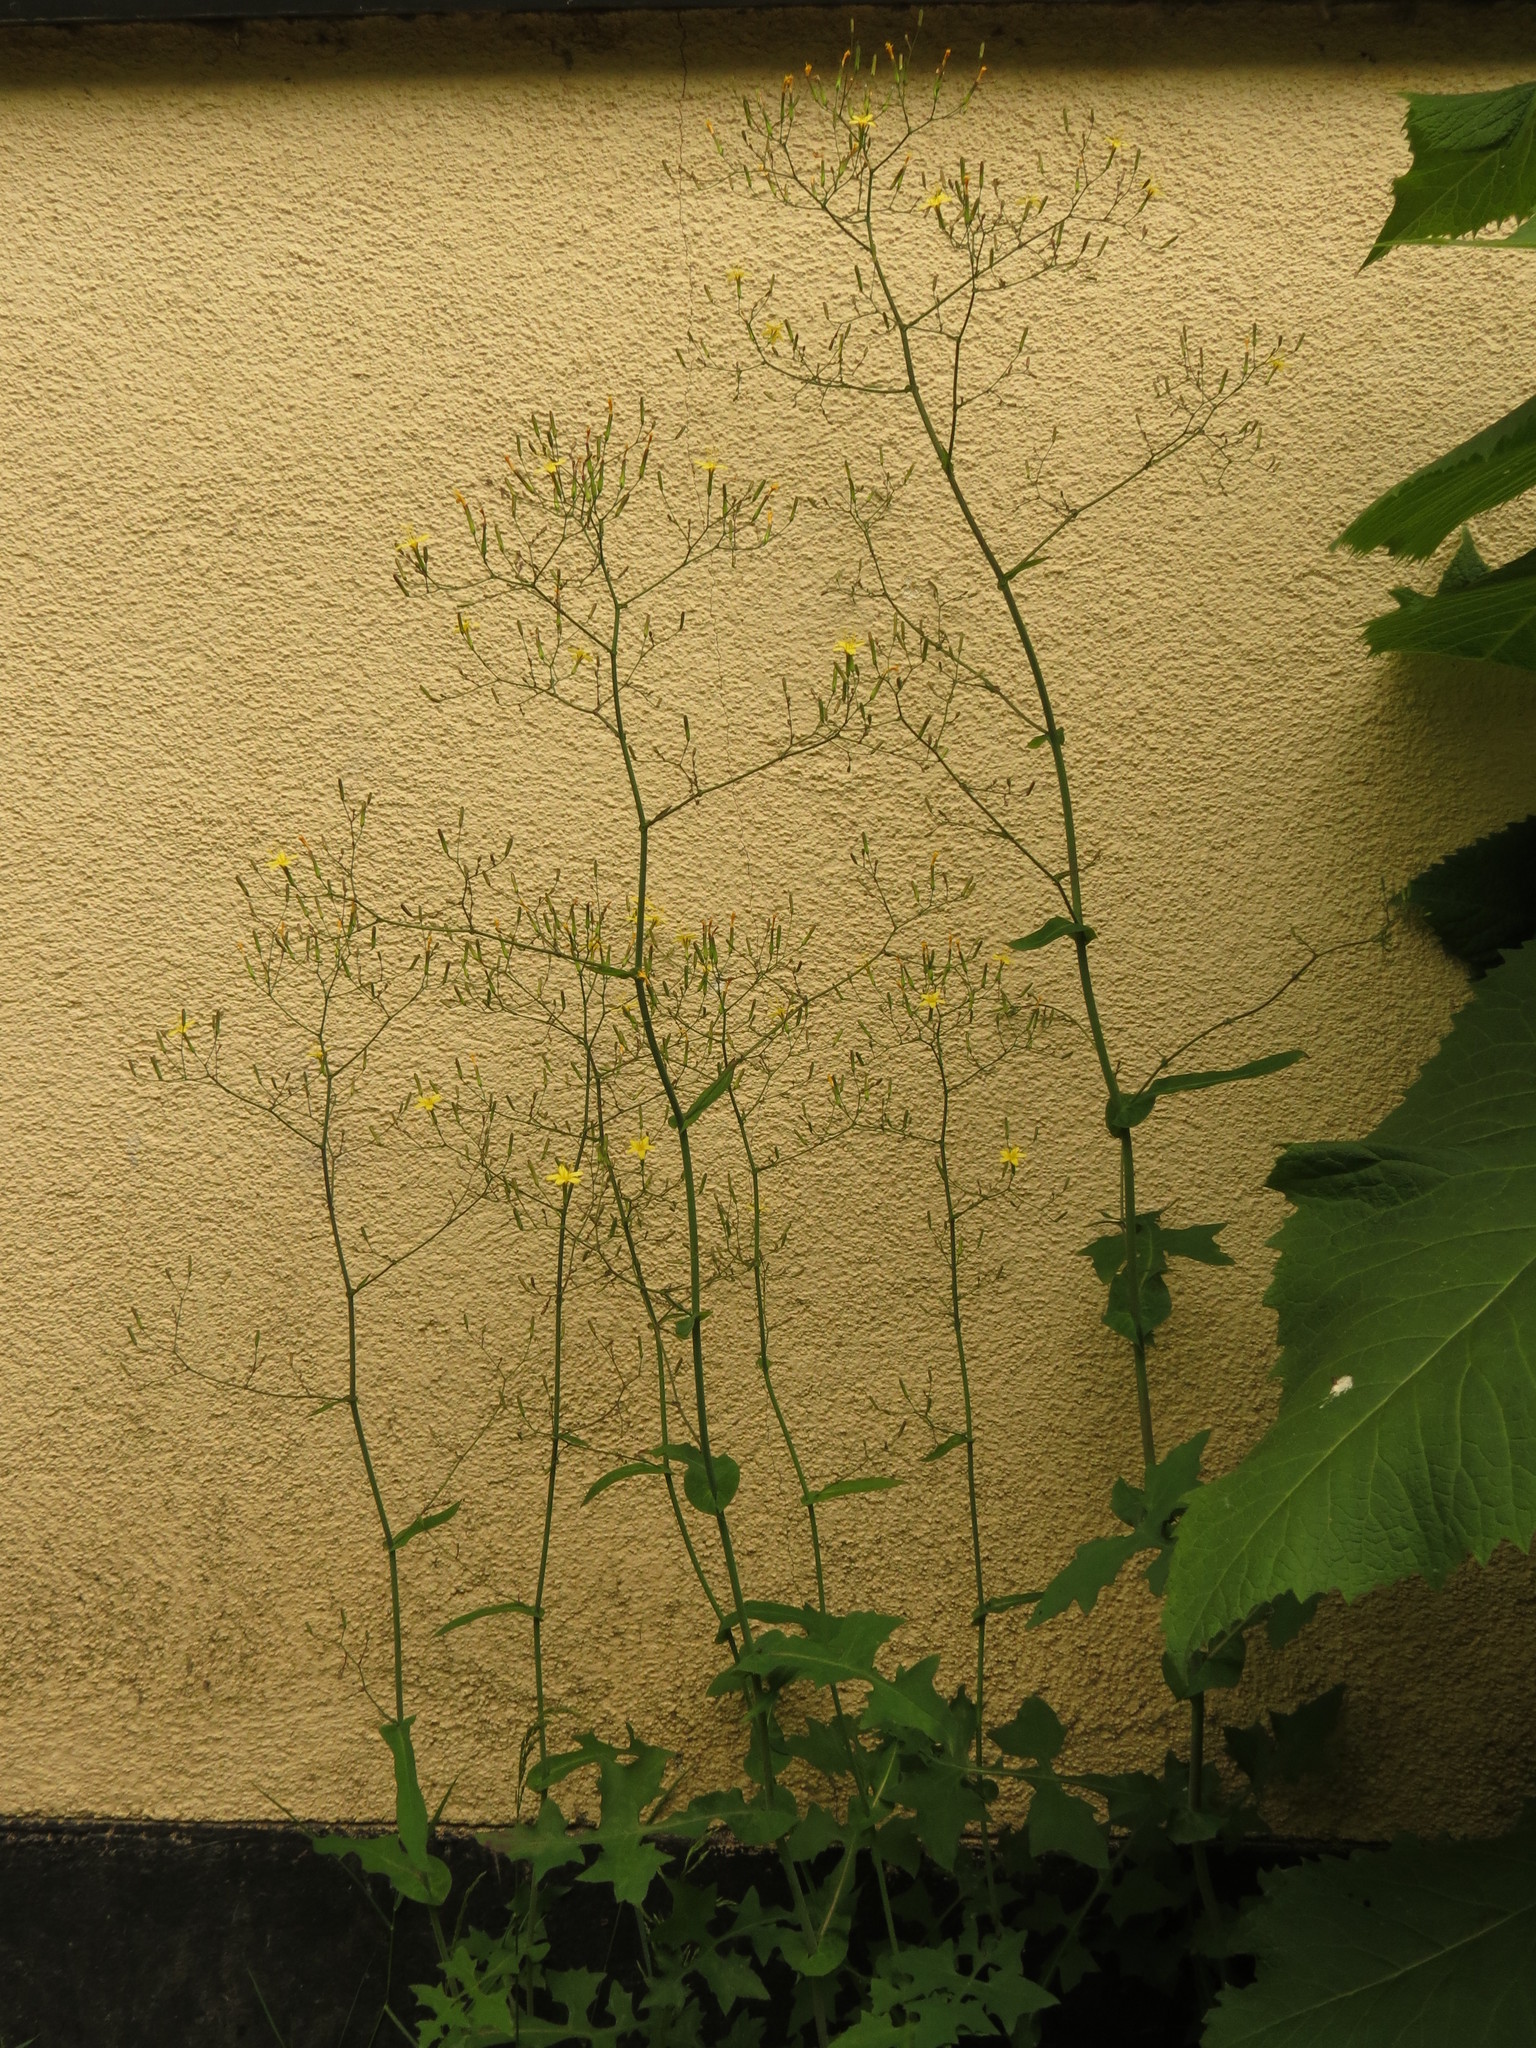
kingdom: Plantae
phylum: Tracheophyta
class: Magnoliopsida
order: Asterales
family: Asteraceae
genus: Mycelis
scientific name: Mycelis muralis
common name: Wall lettuce
